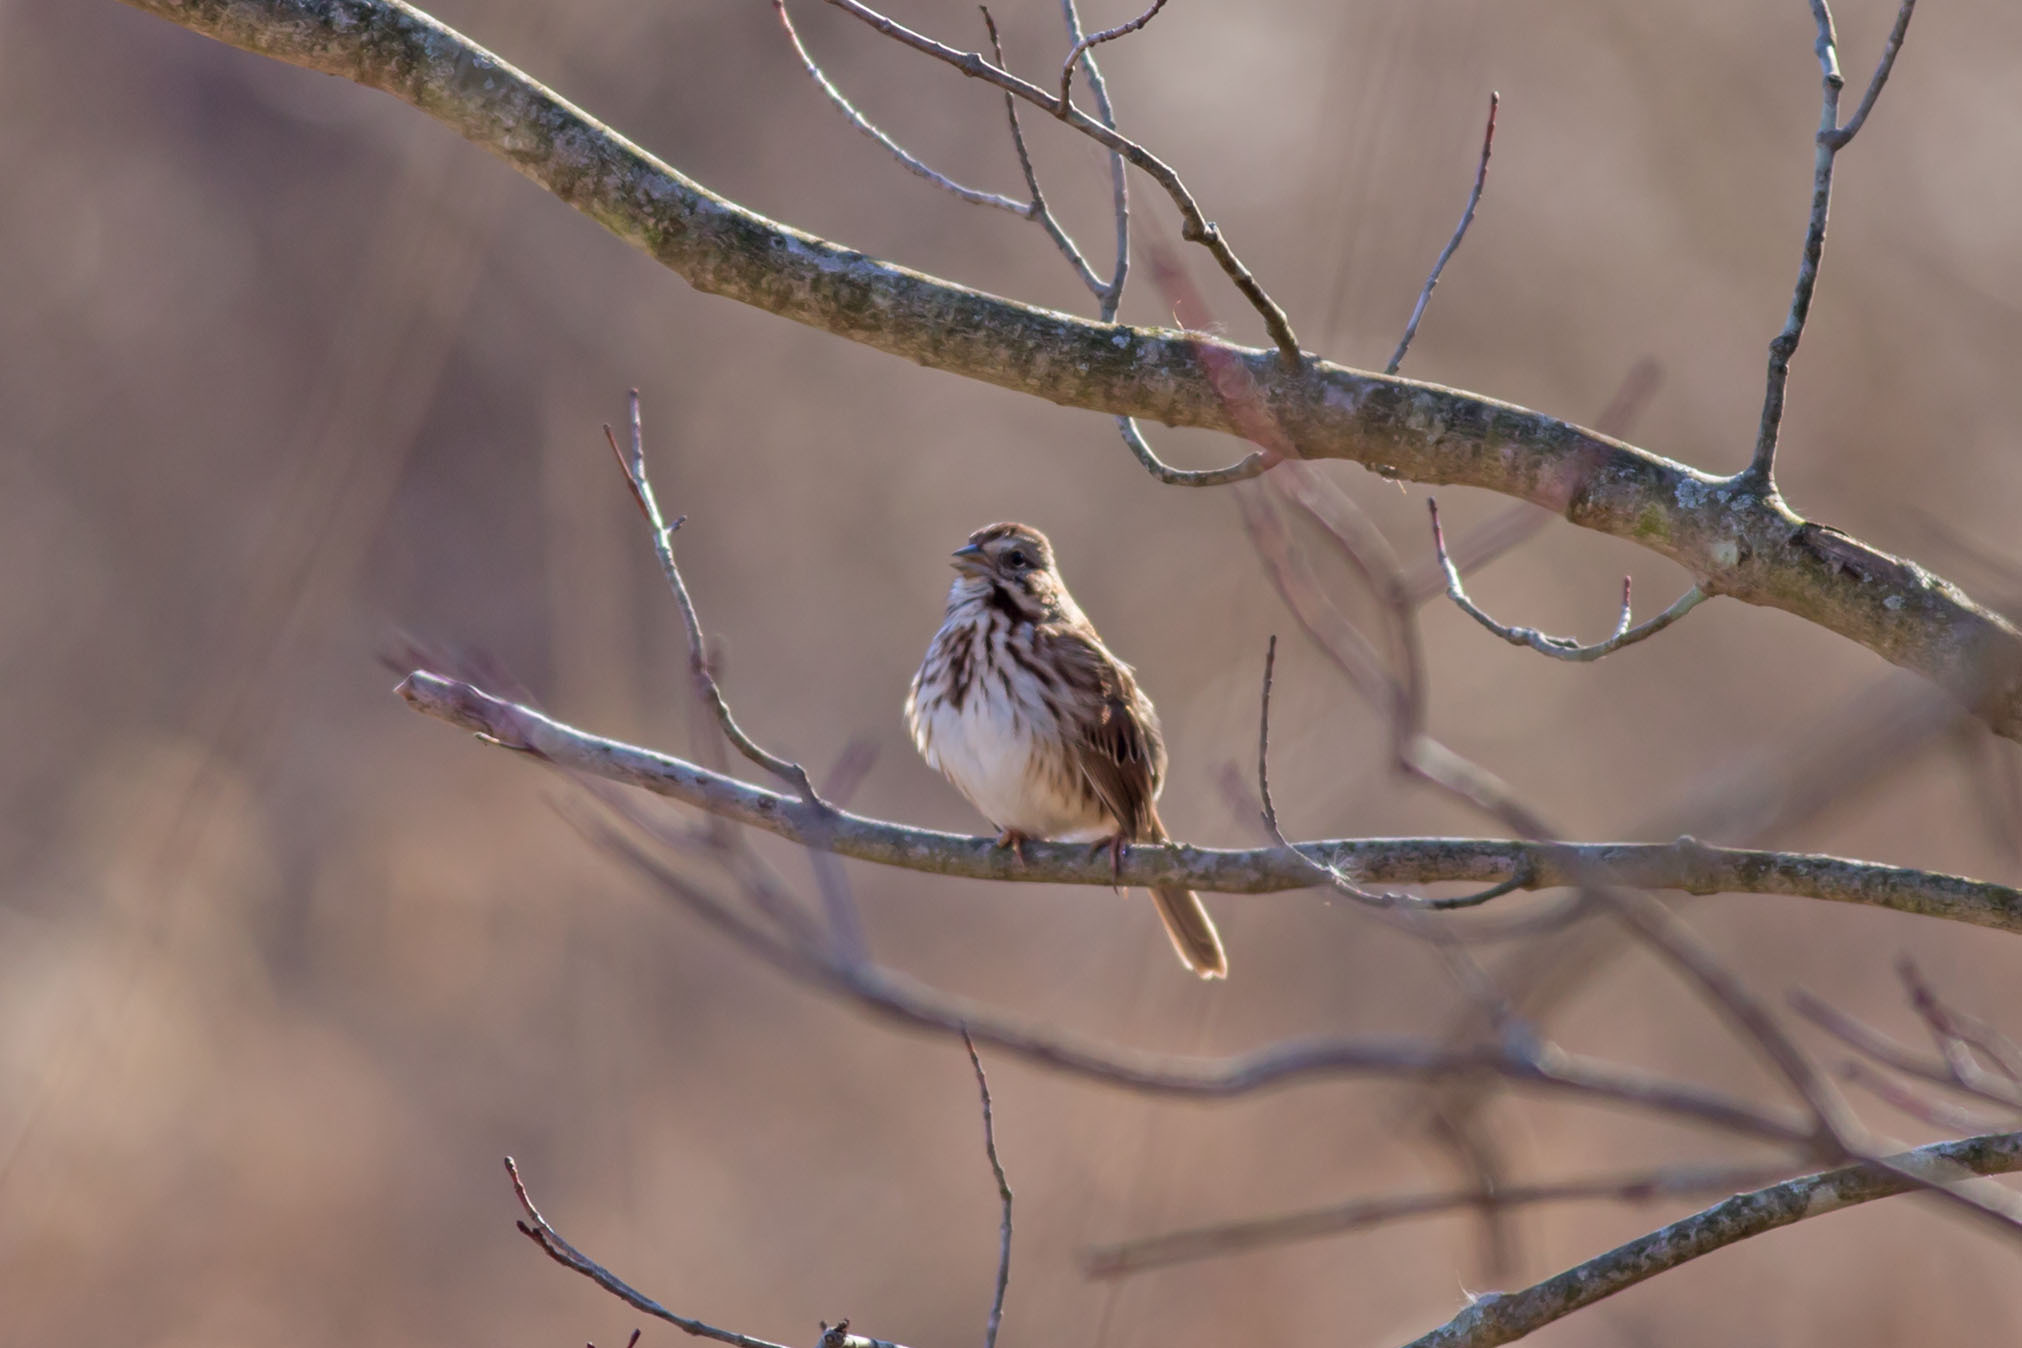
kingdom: Animalia
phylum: Chordata
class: Aves
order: Passeriformes
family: Passerellidae
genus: Melospiza
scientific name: Melospiza melodia
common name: Song sparrow
